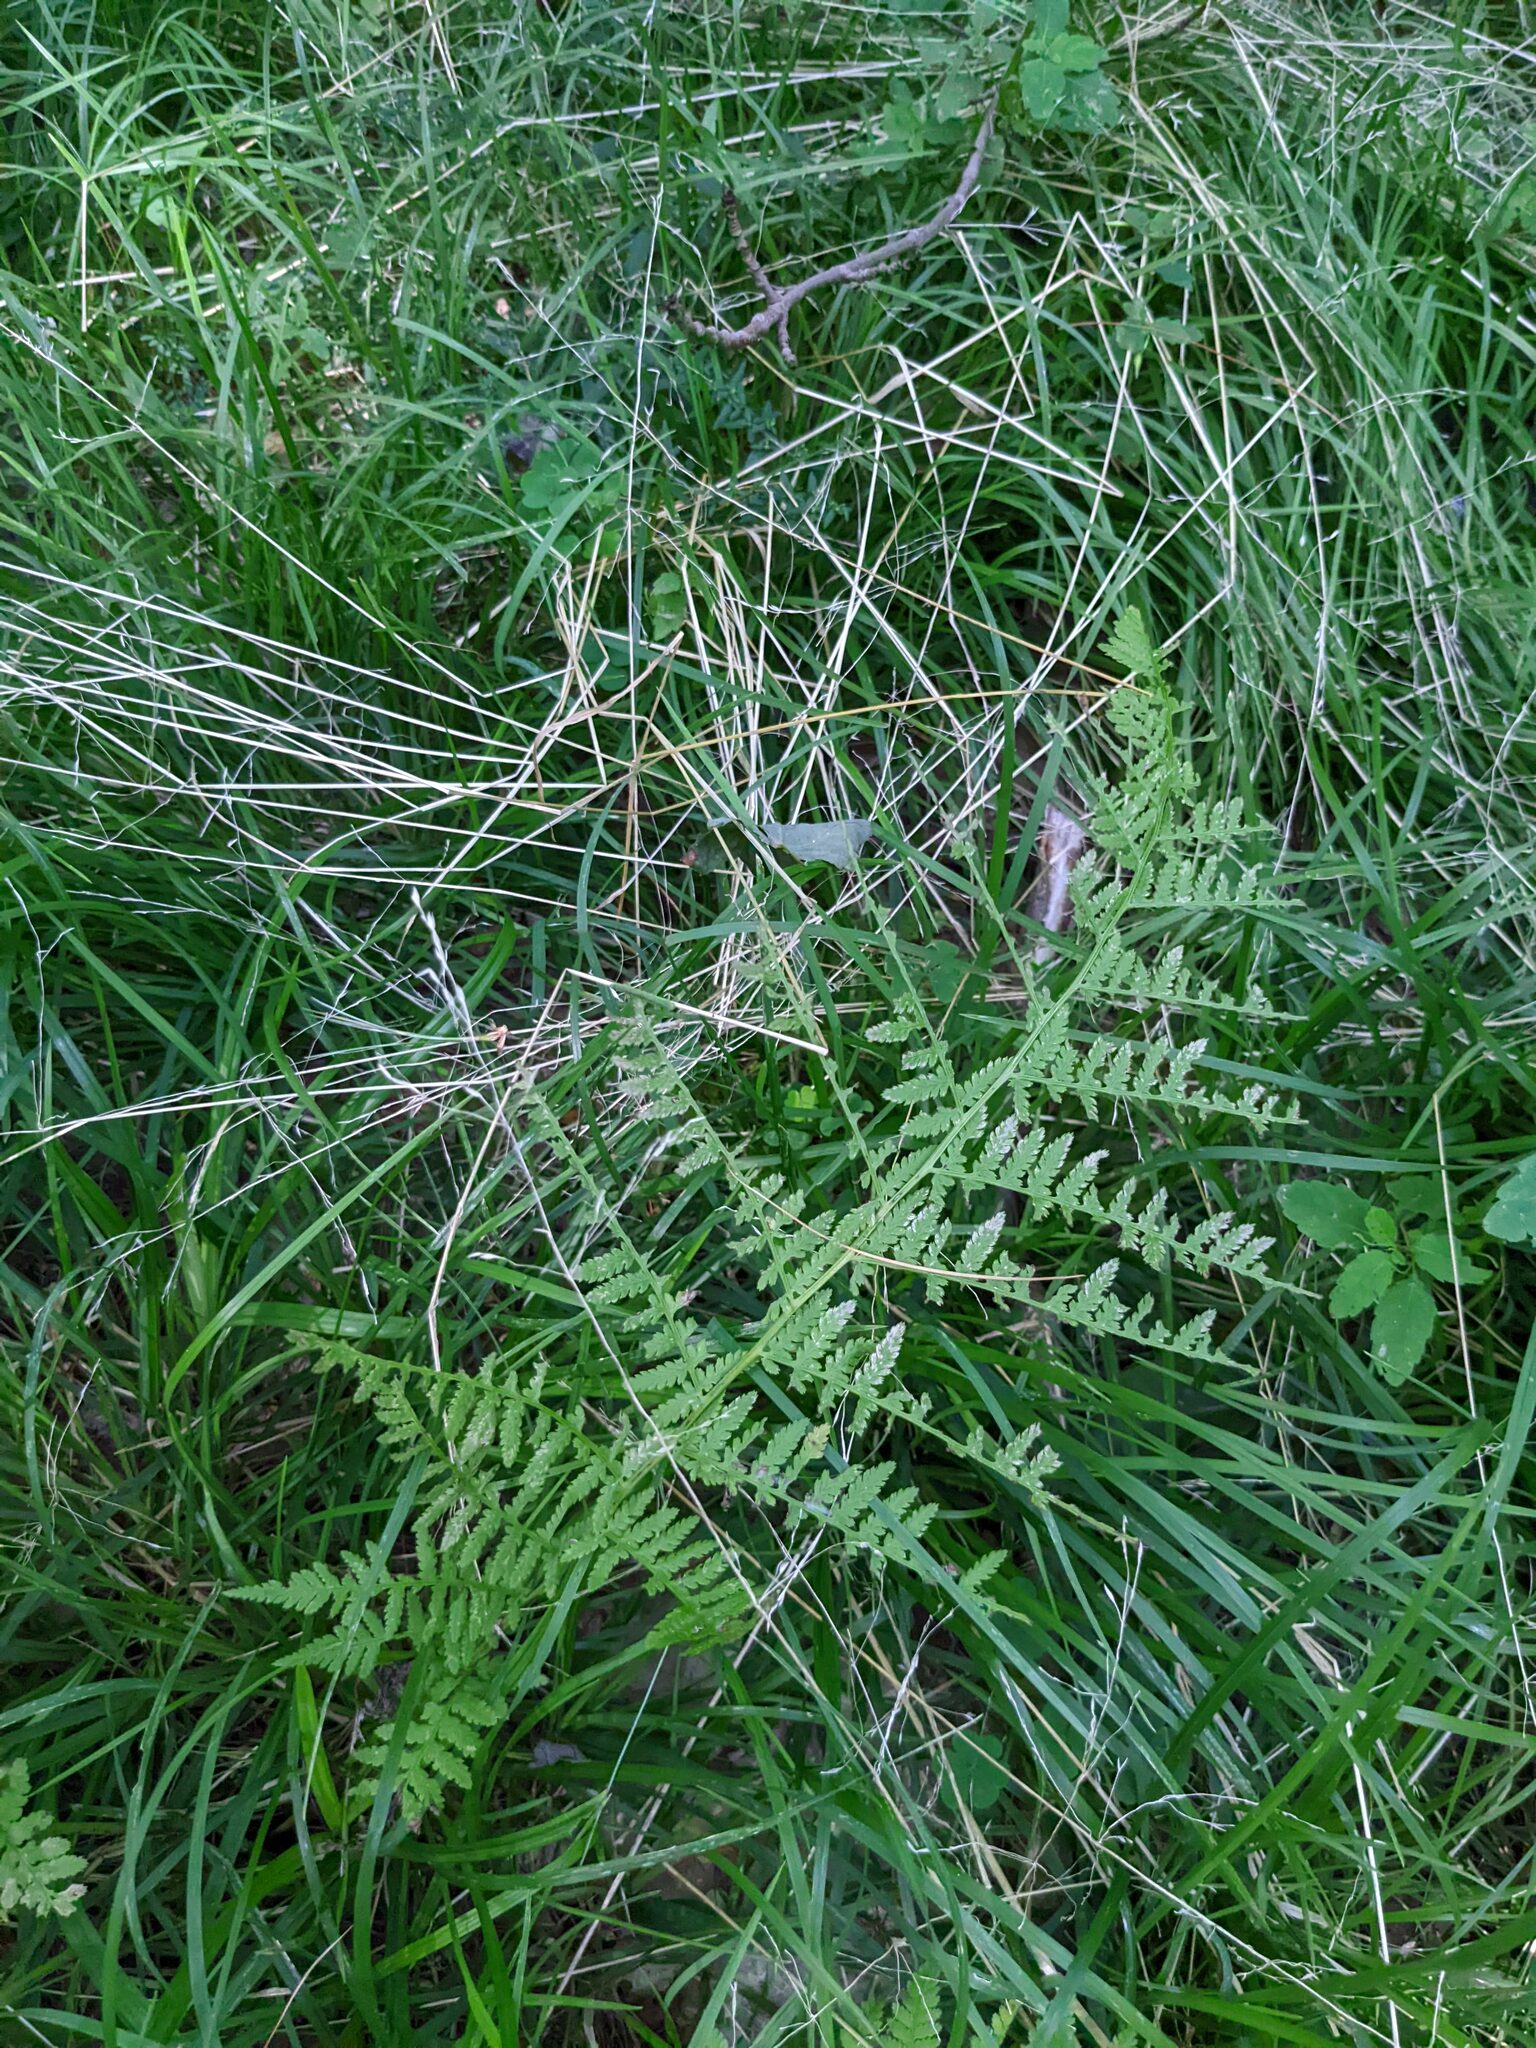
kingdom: Plantae
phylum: Tracheophyta
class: Polypodiopsida
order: Polypodiales
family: Athyriaceae
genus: Athyrium
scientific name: Athyrium angustum
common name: Northern lady fern
